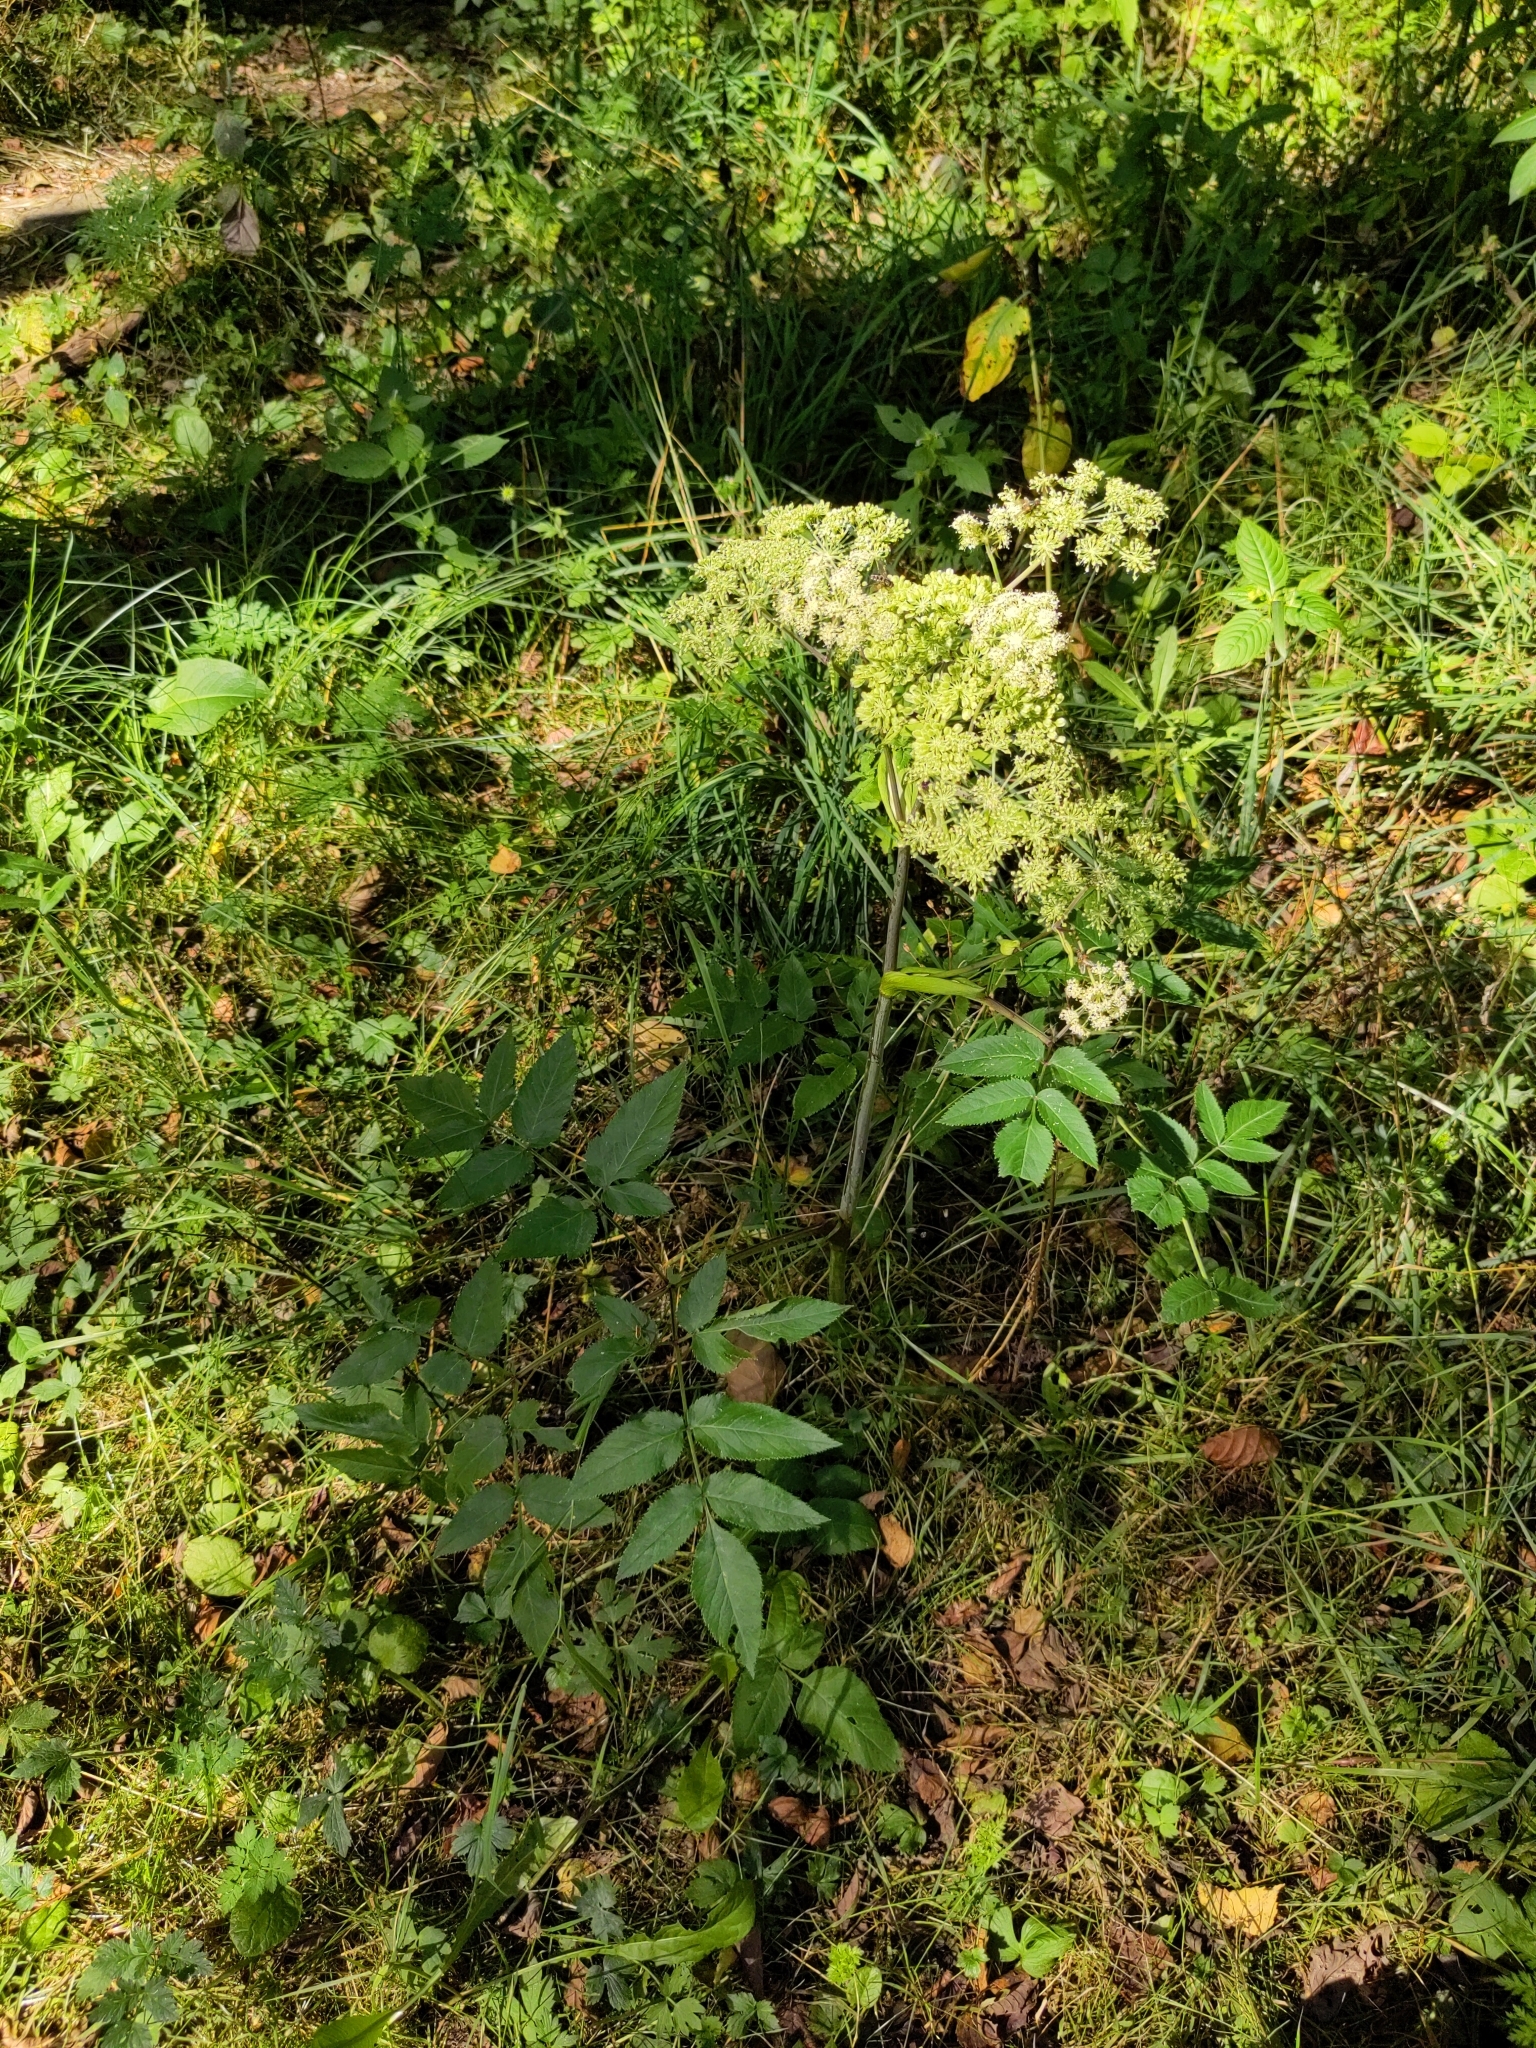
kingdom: Plantae
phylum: Tracheophyta
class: Magnoliopsida
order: Apiales
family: Apiaceae
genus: Angelica
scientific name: Angelica sylvestris
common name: Wild angelica
